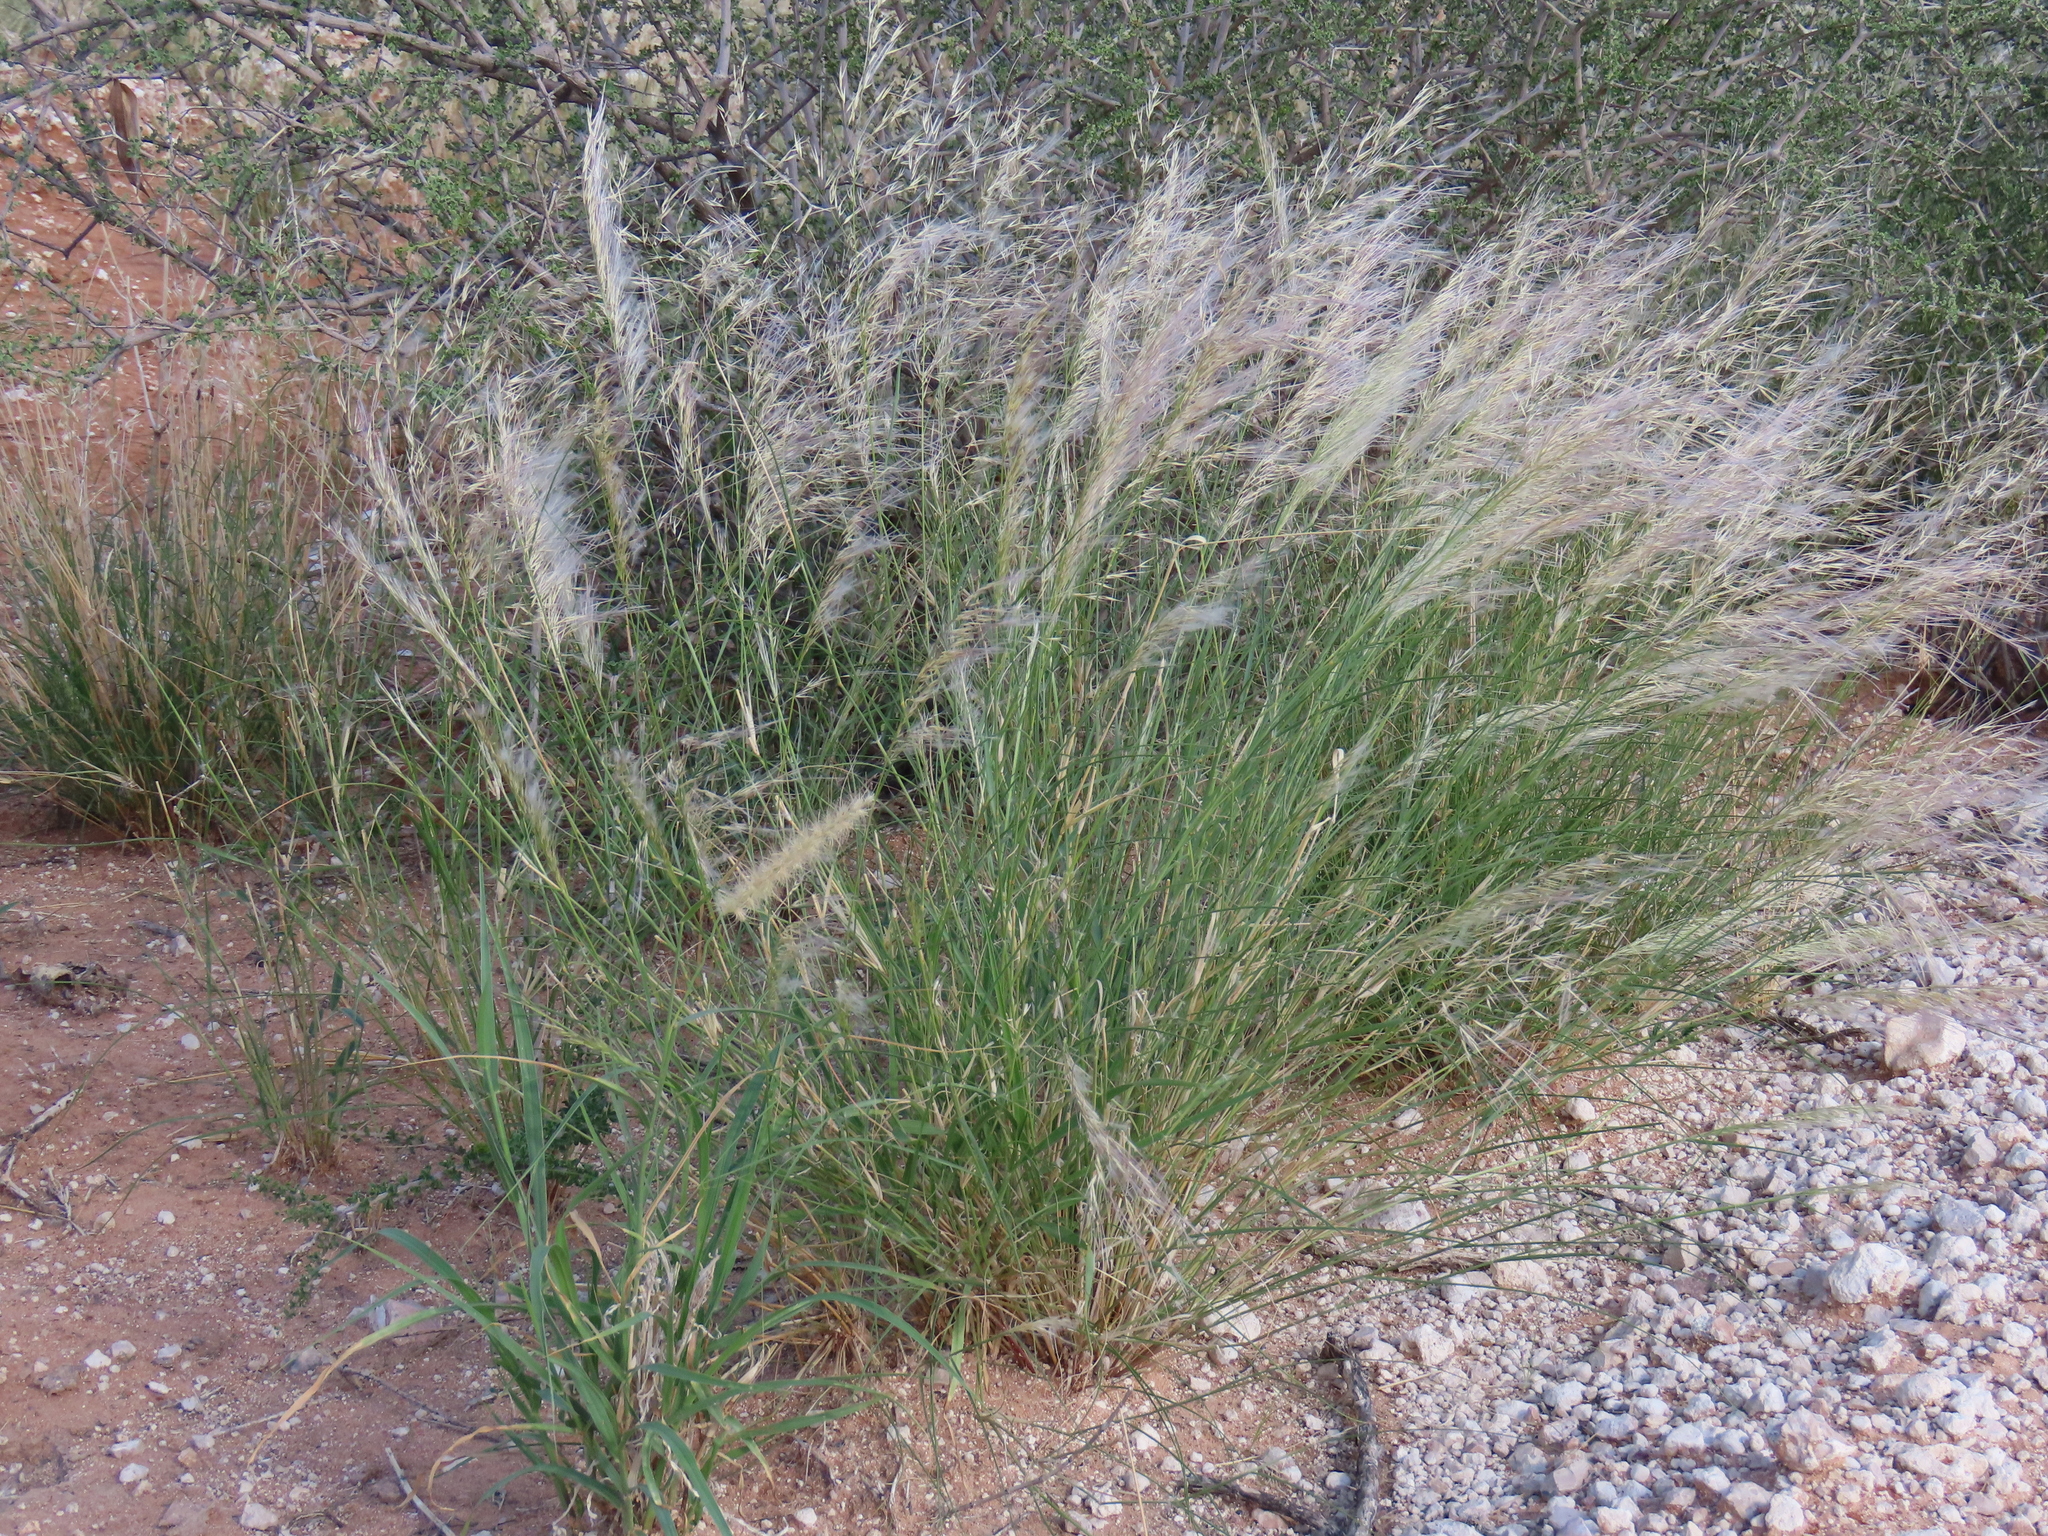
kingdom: Plantae
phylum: Tracheophyta
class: Liliopsida
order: Poales
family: Poaceae
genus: Stipagrostis
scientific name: Stipagrostis ciliata
